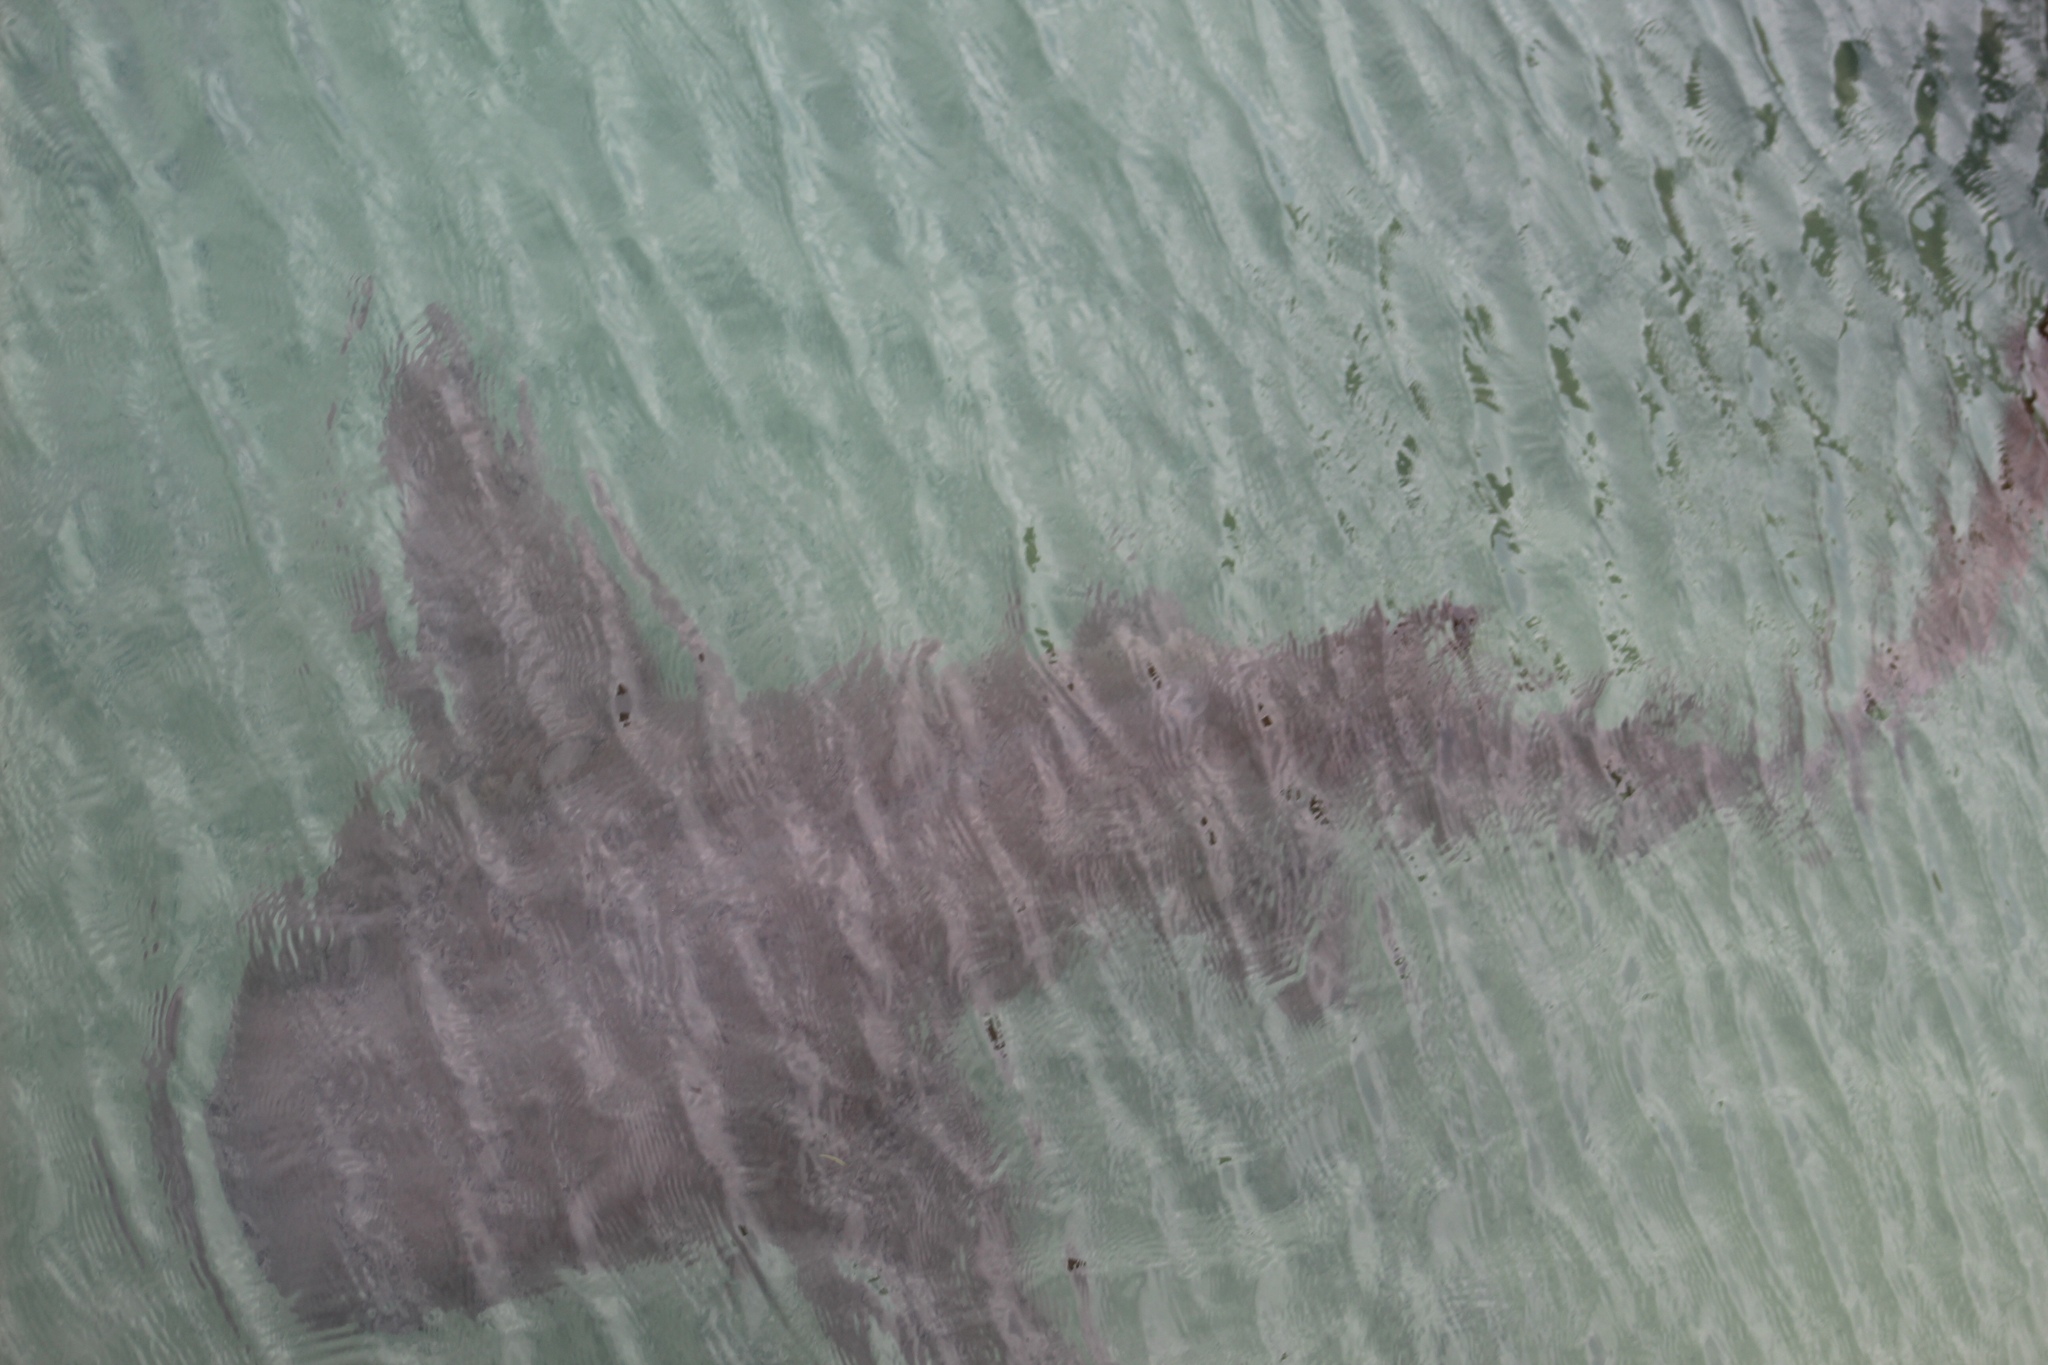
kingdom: Animalia
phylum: Chordata
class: Elasmobranchii
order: Orectolobiformes
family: Ginglymostomatidae
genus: Ginglymostoma
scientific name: Ginglymostoma cirratum
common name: Nurse shark
